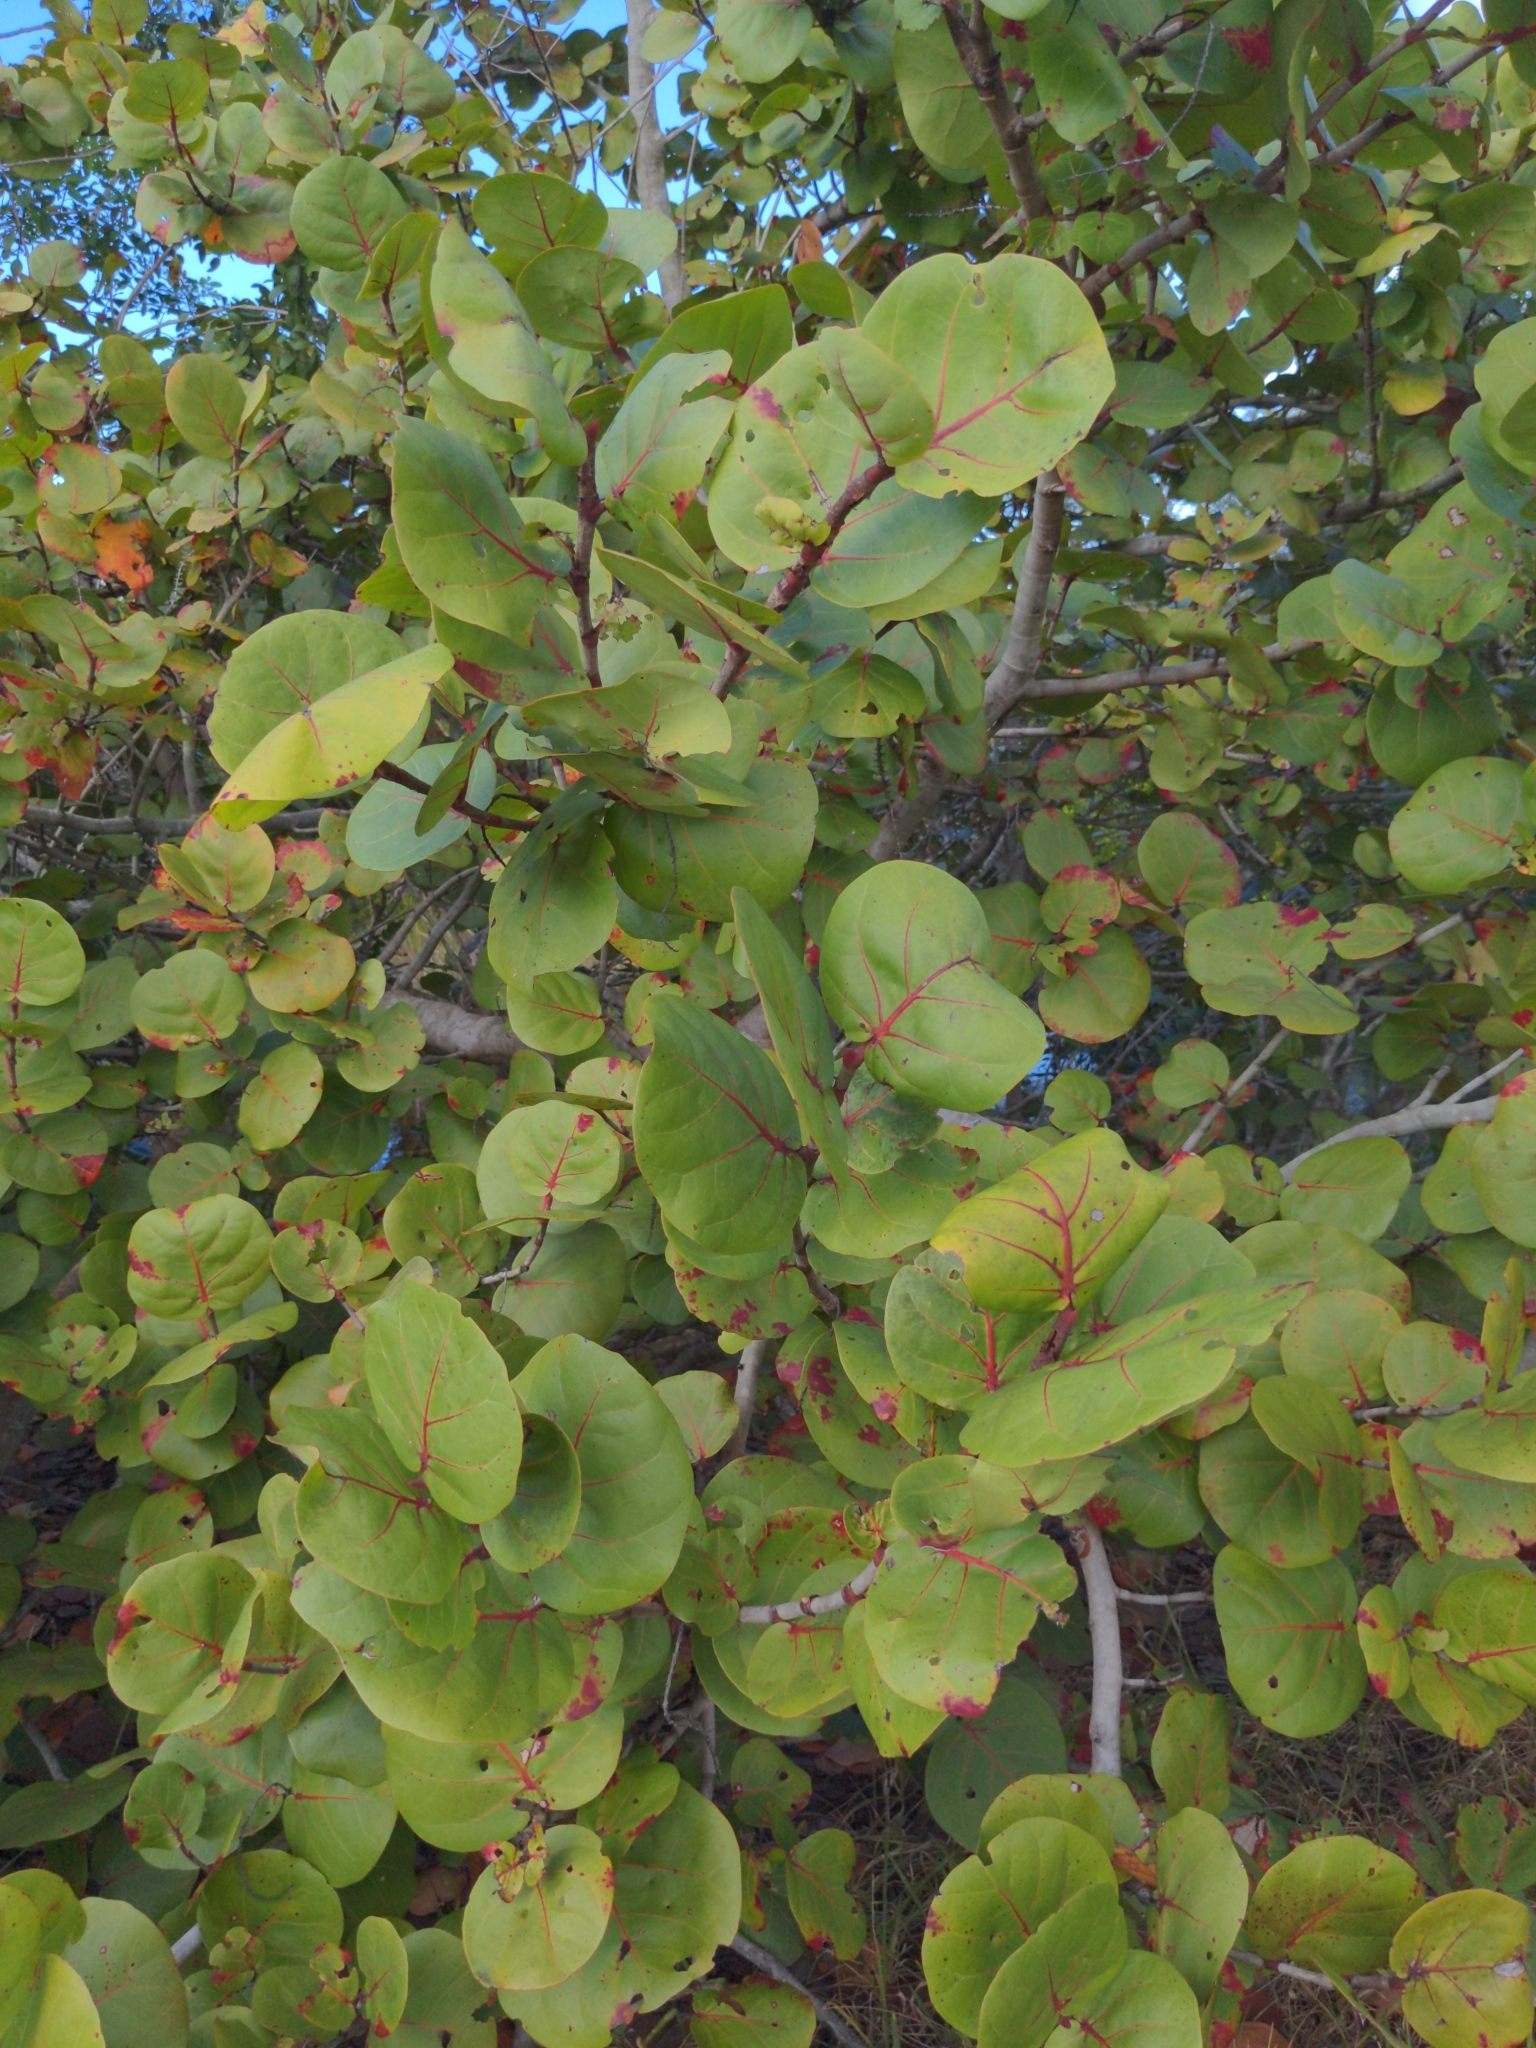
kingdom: Plantae
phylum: Tracheophyta
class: Magnoliopsida
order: Caryophyllales
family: Polygonaceae
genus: Coccoloba
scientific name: Coccoloba uvifera
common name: Seagrape
